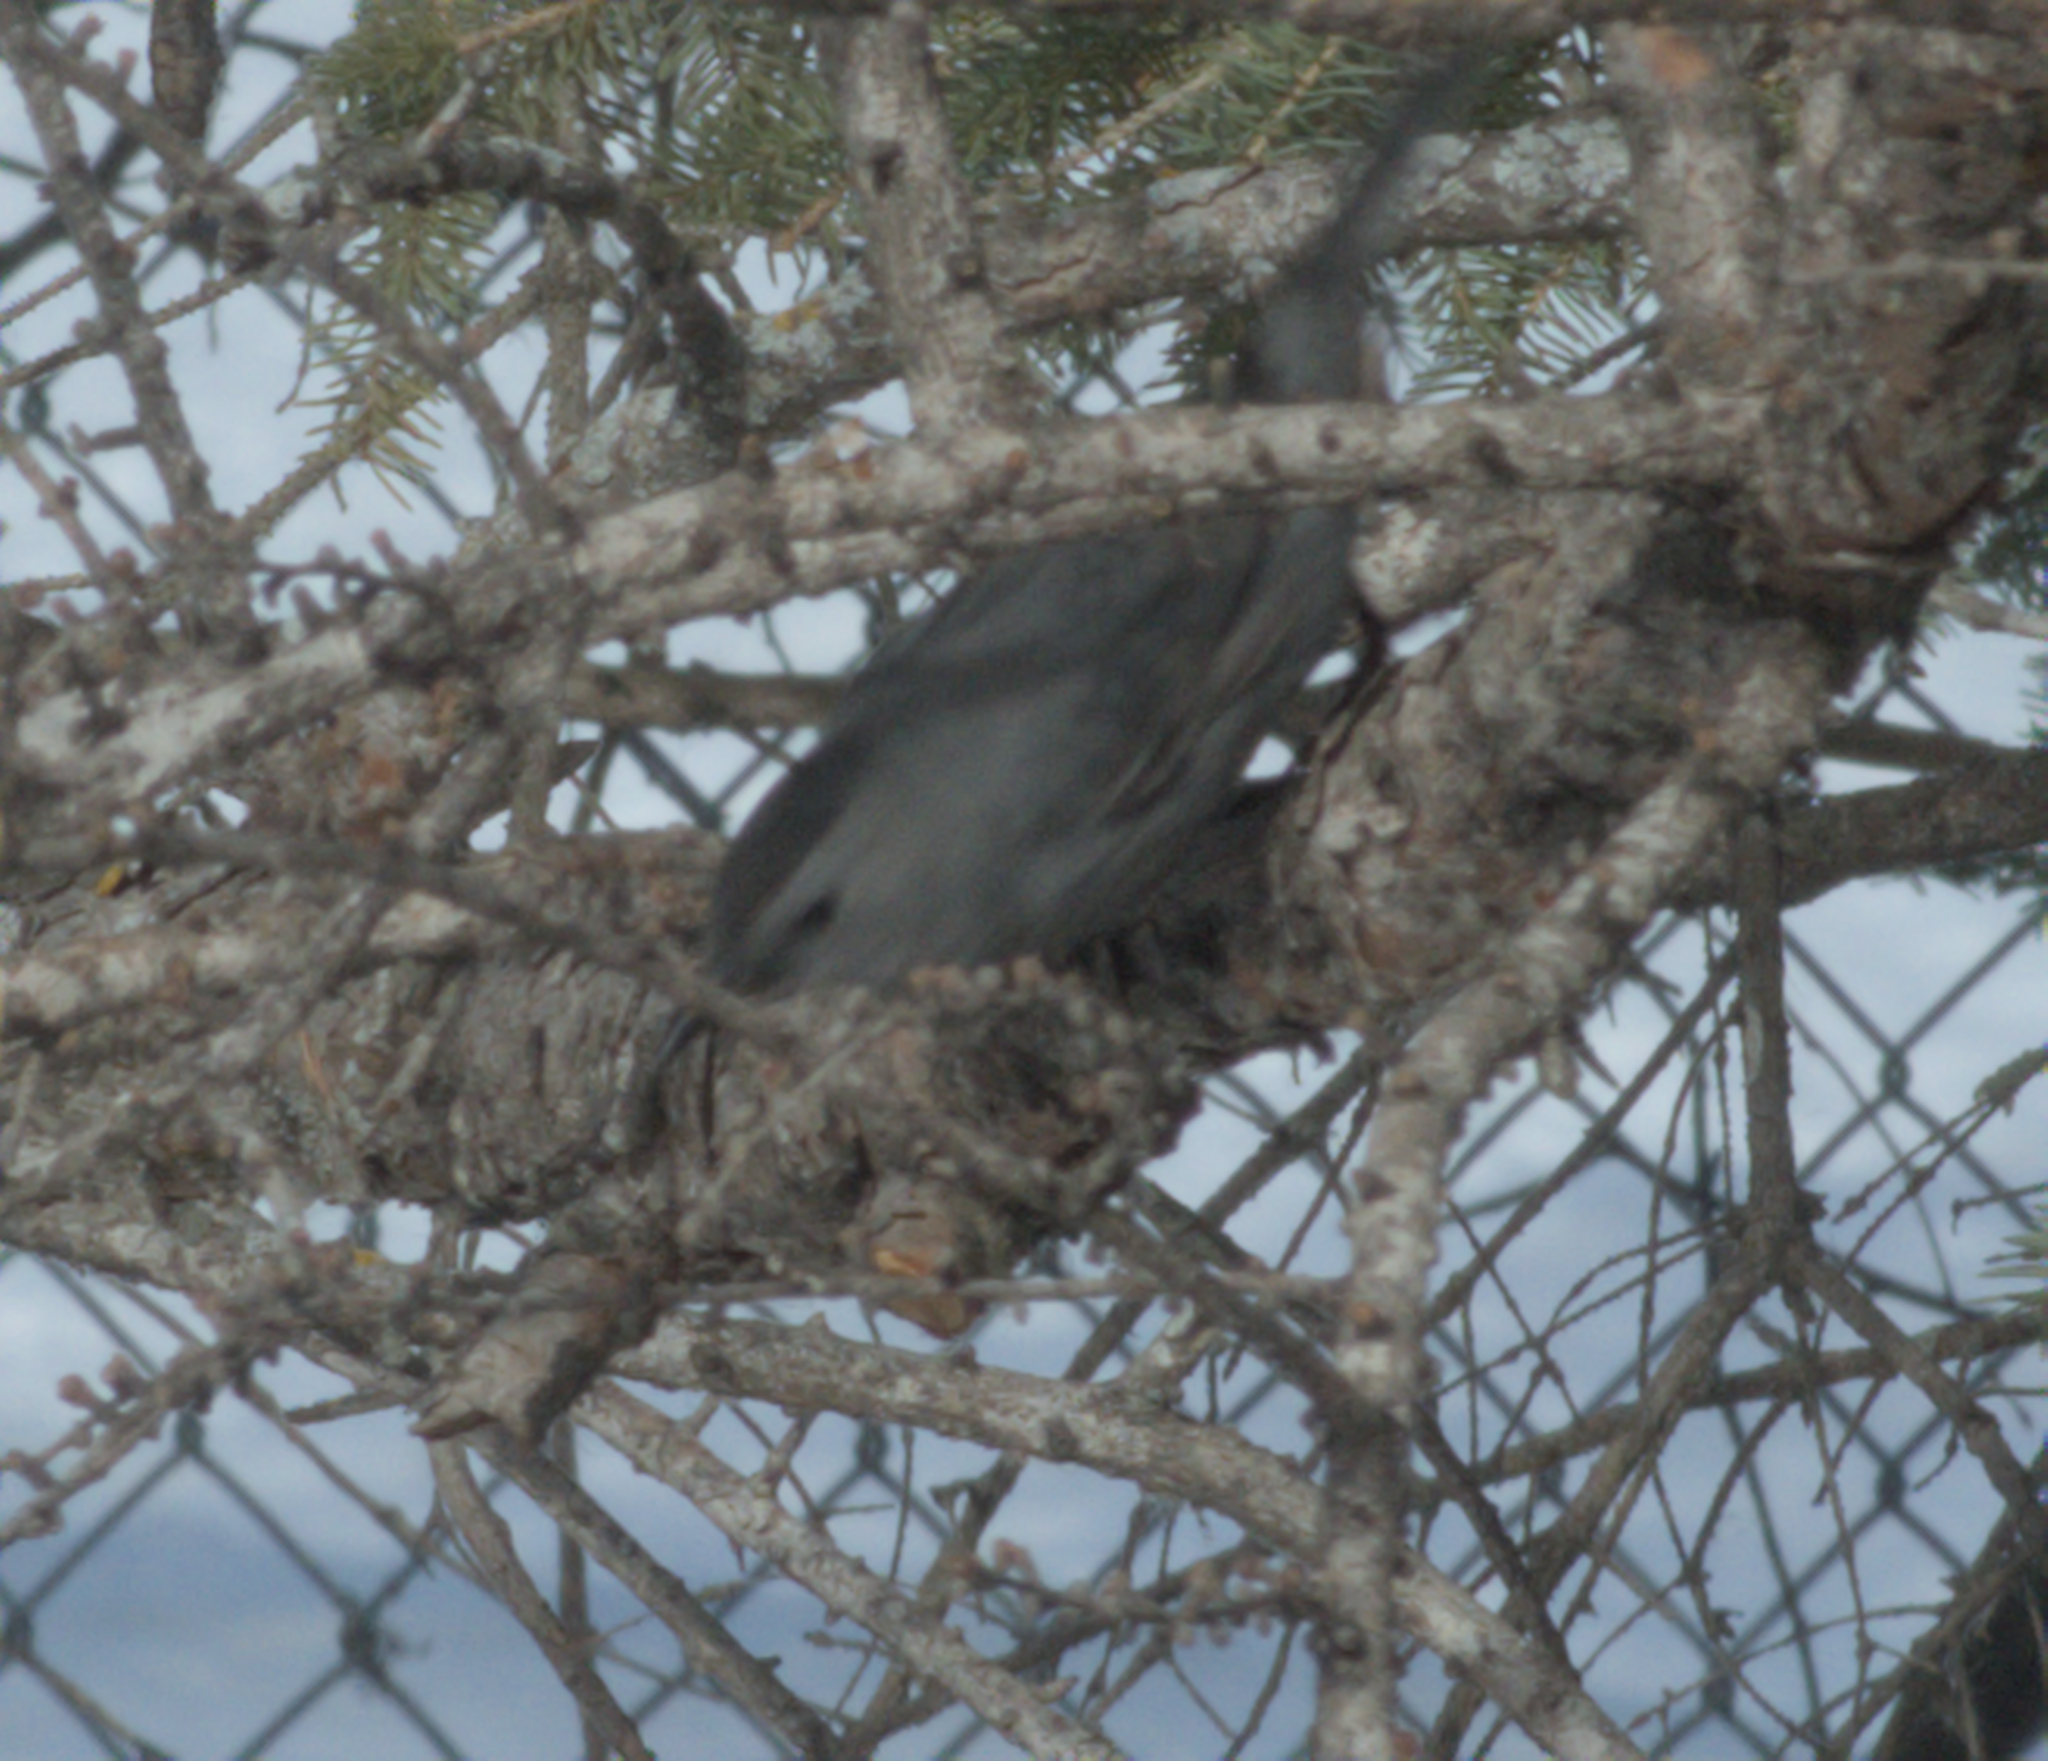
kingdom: Animalia
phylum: Chordata
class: Aves
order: Passeriformes
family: Mimidae
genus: Dumetella
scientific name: Dumetella carolinensis
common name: Gray catbird
